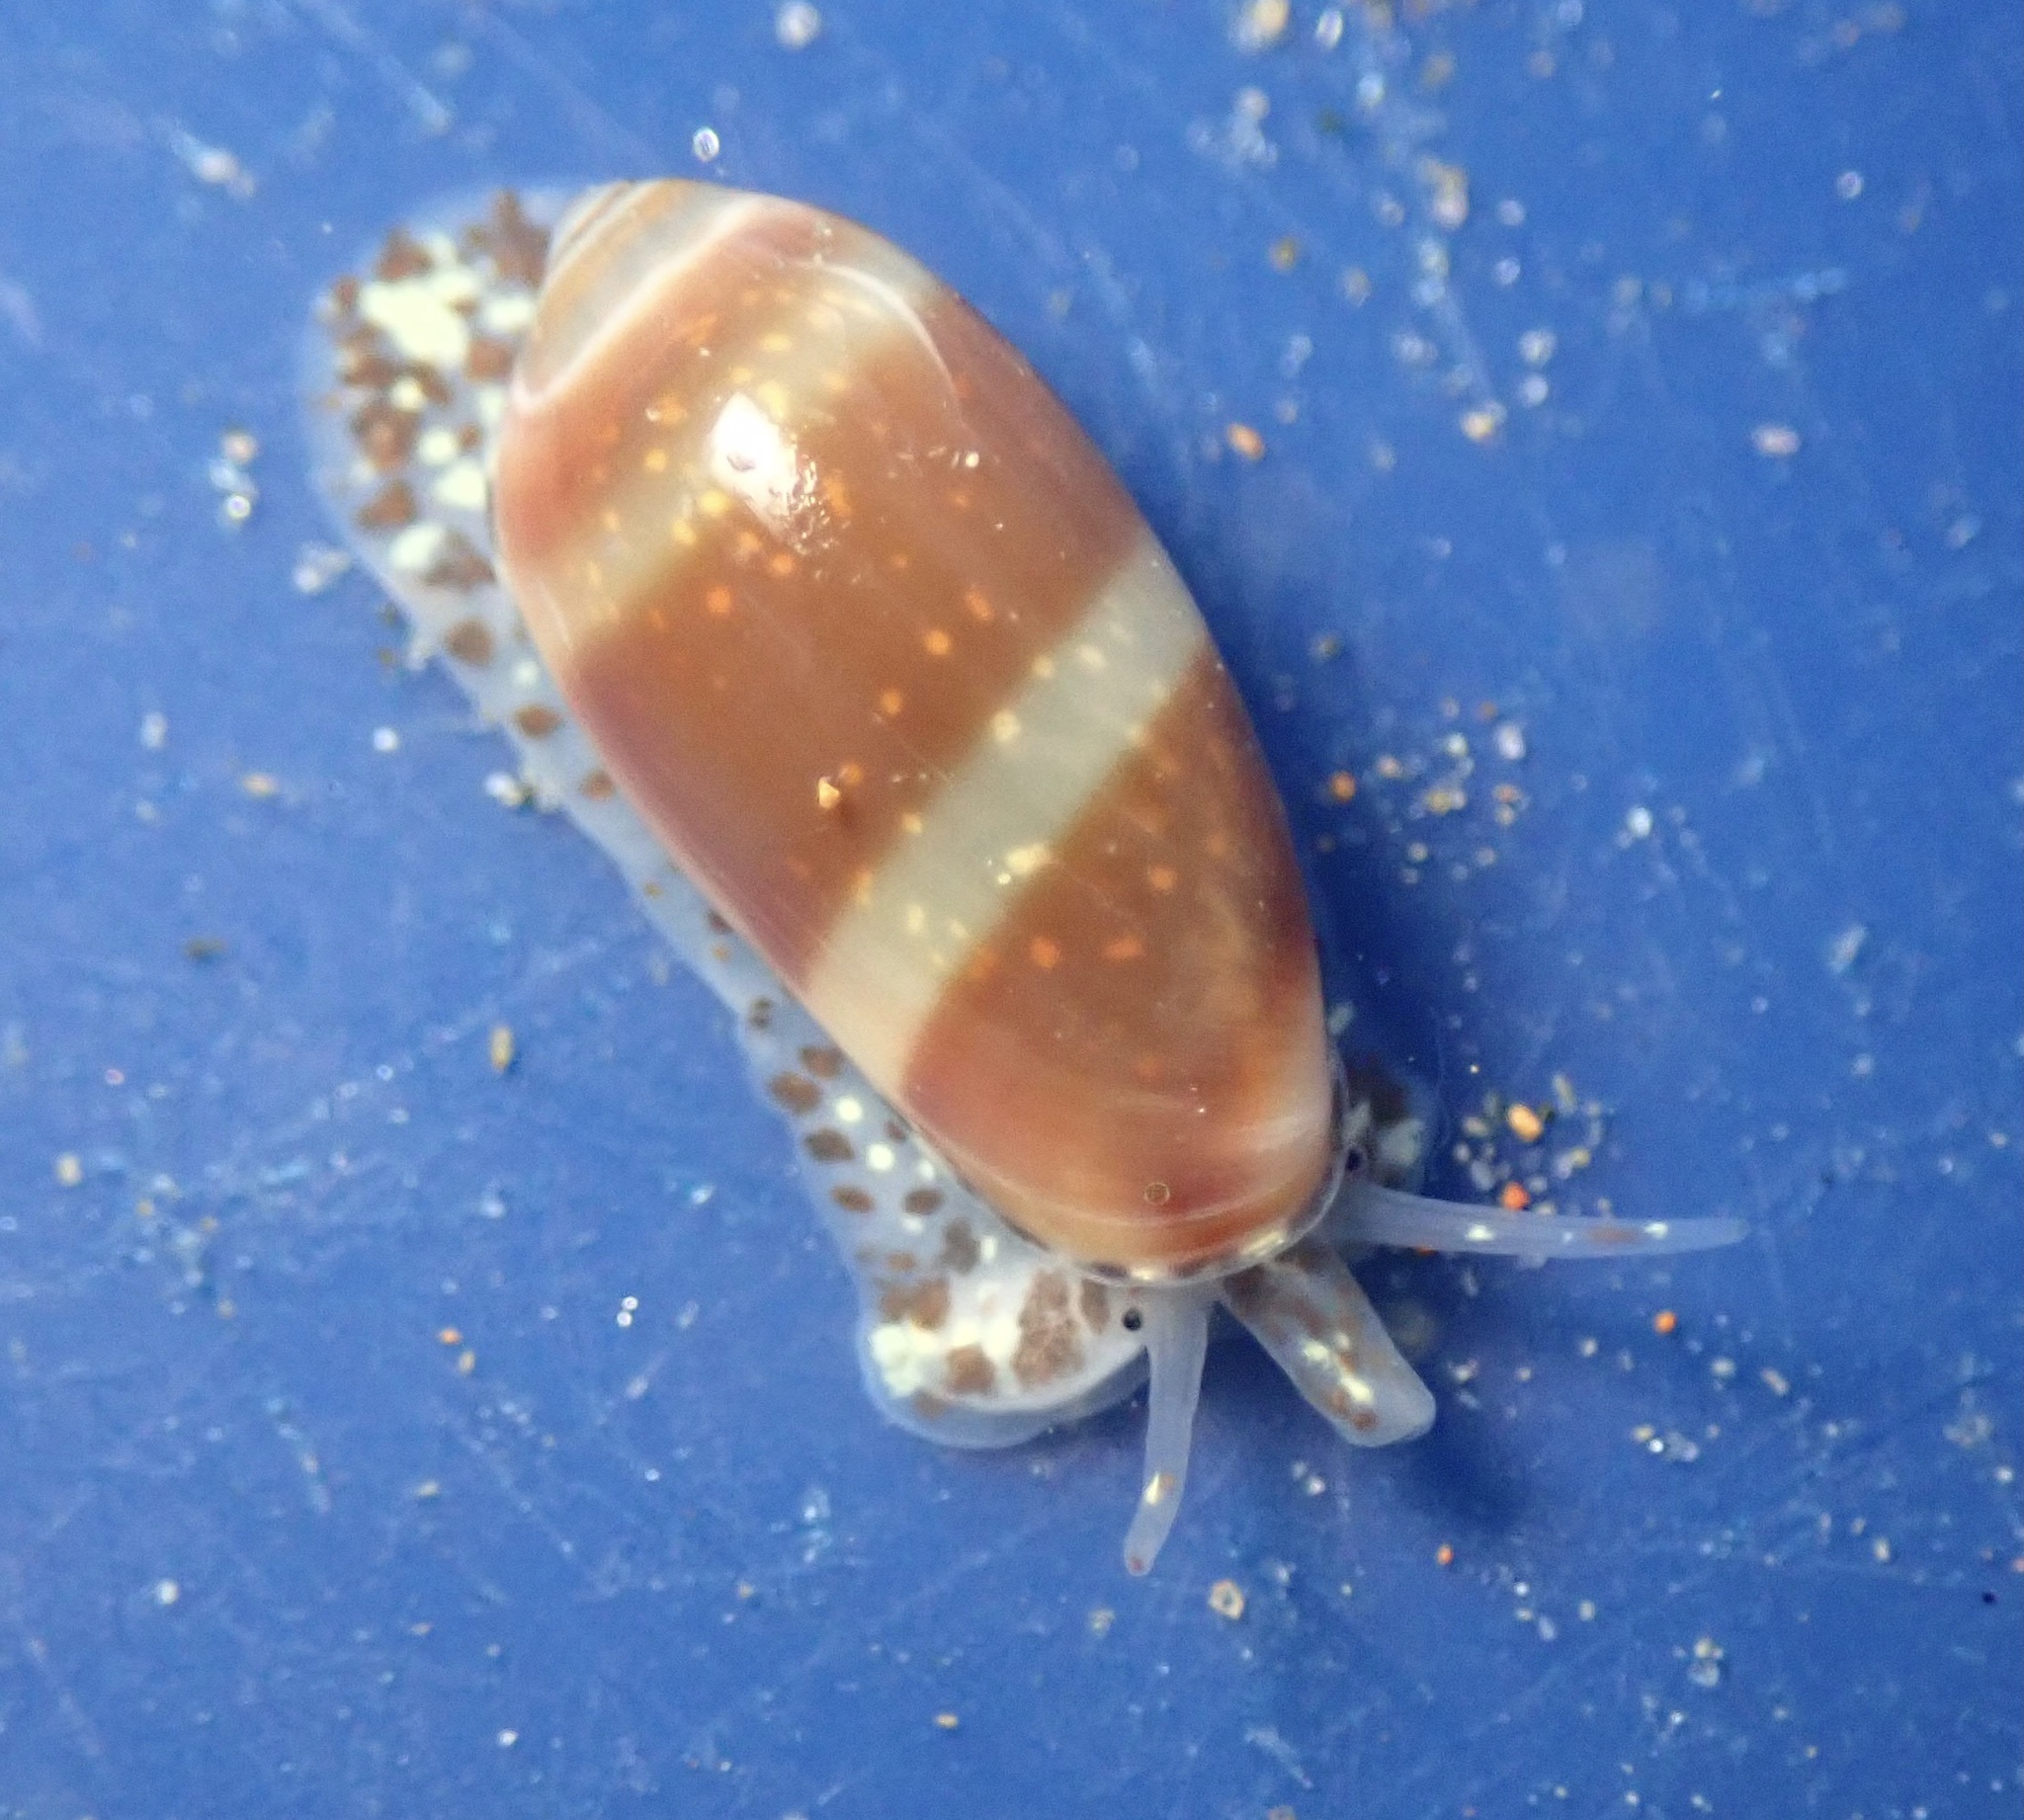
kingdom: Animalia
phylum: Mollusca
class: Gastropoda
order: Neogastropoda
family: Marginellidae
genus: Volvarina
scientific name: Volvarina taeniolata
